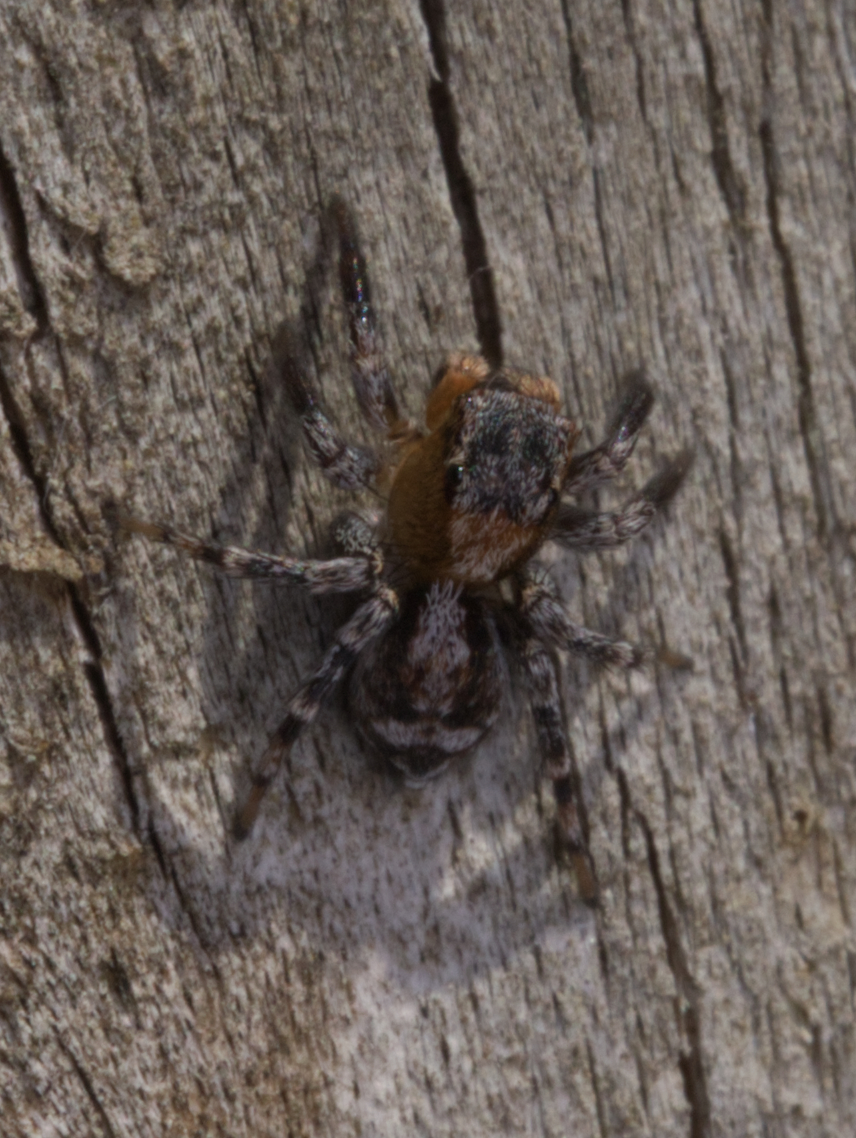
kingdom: Animalia
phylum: Arthropoda
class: Arachnida
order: Araneae
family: Salticidae
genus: Naphrys
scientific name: Naphrys pulex
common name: Flea jumping spider
